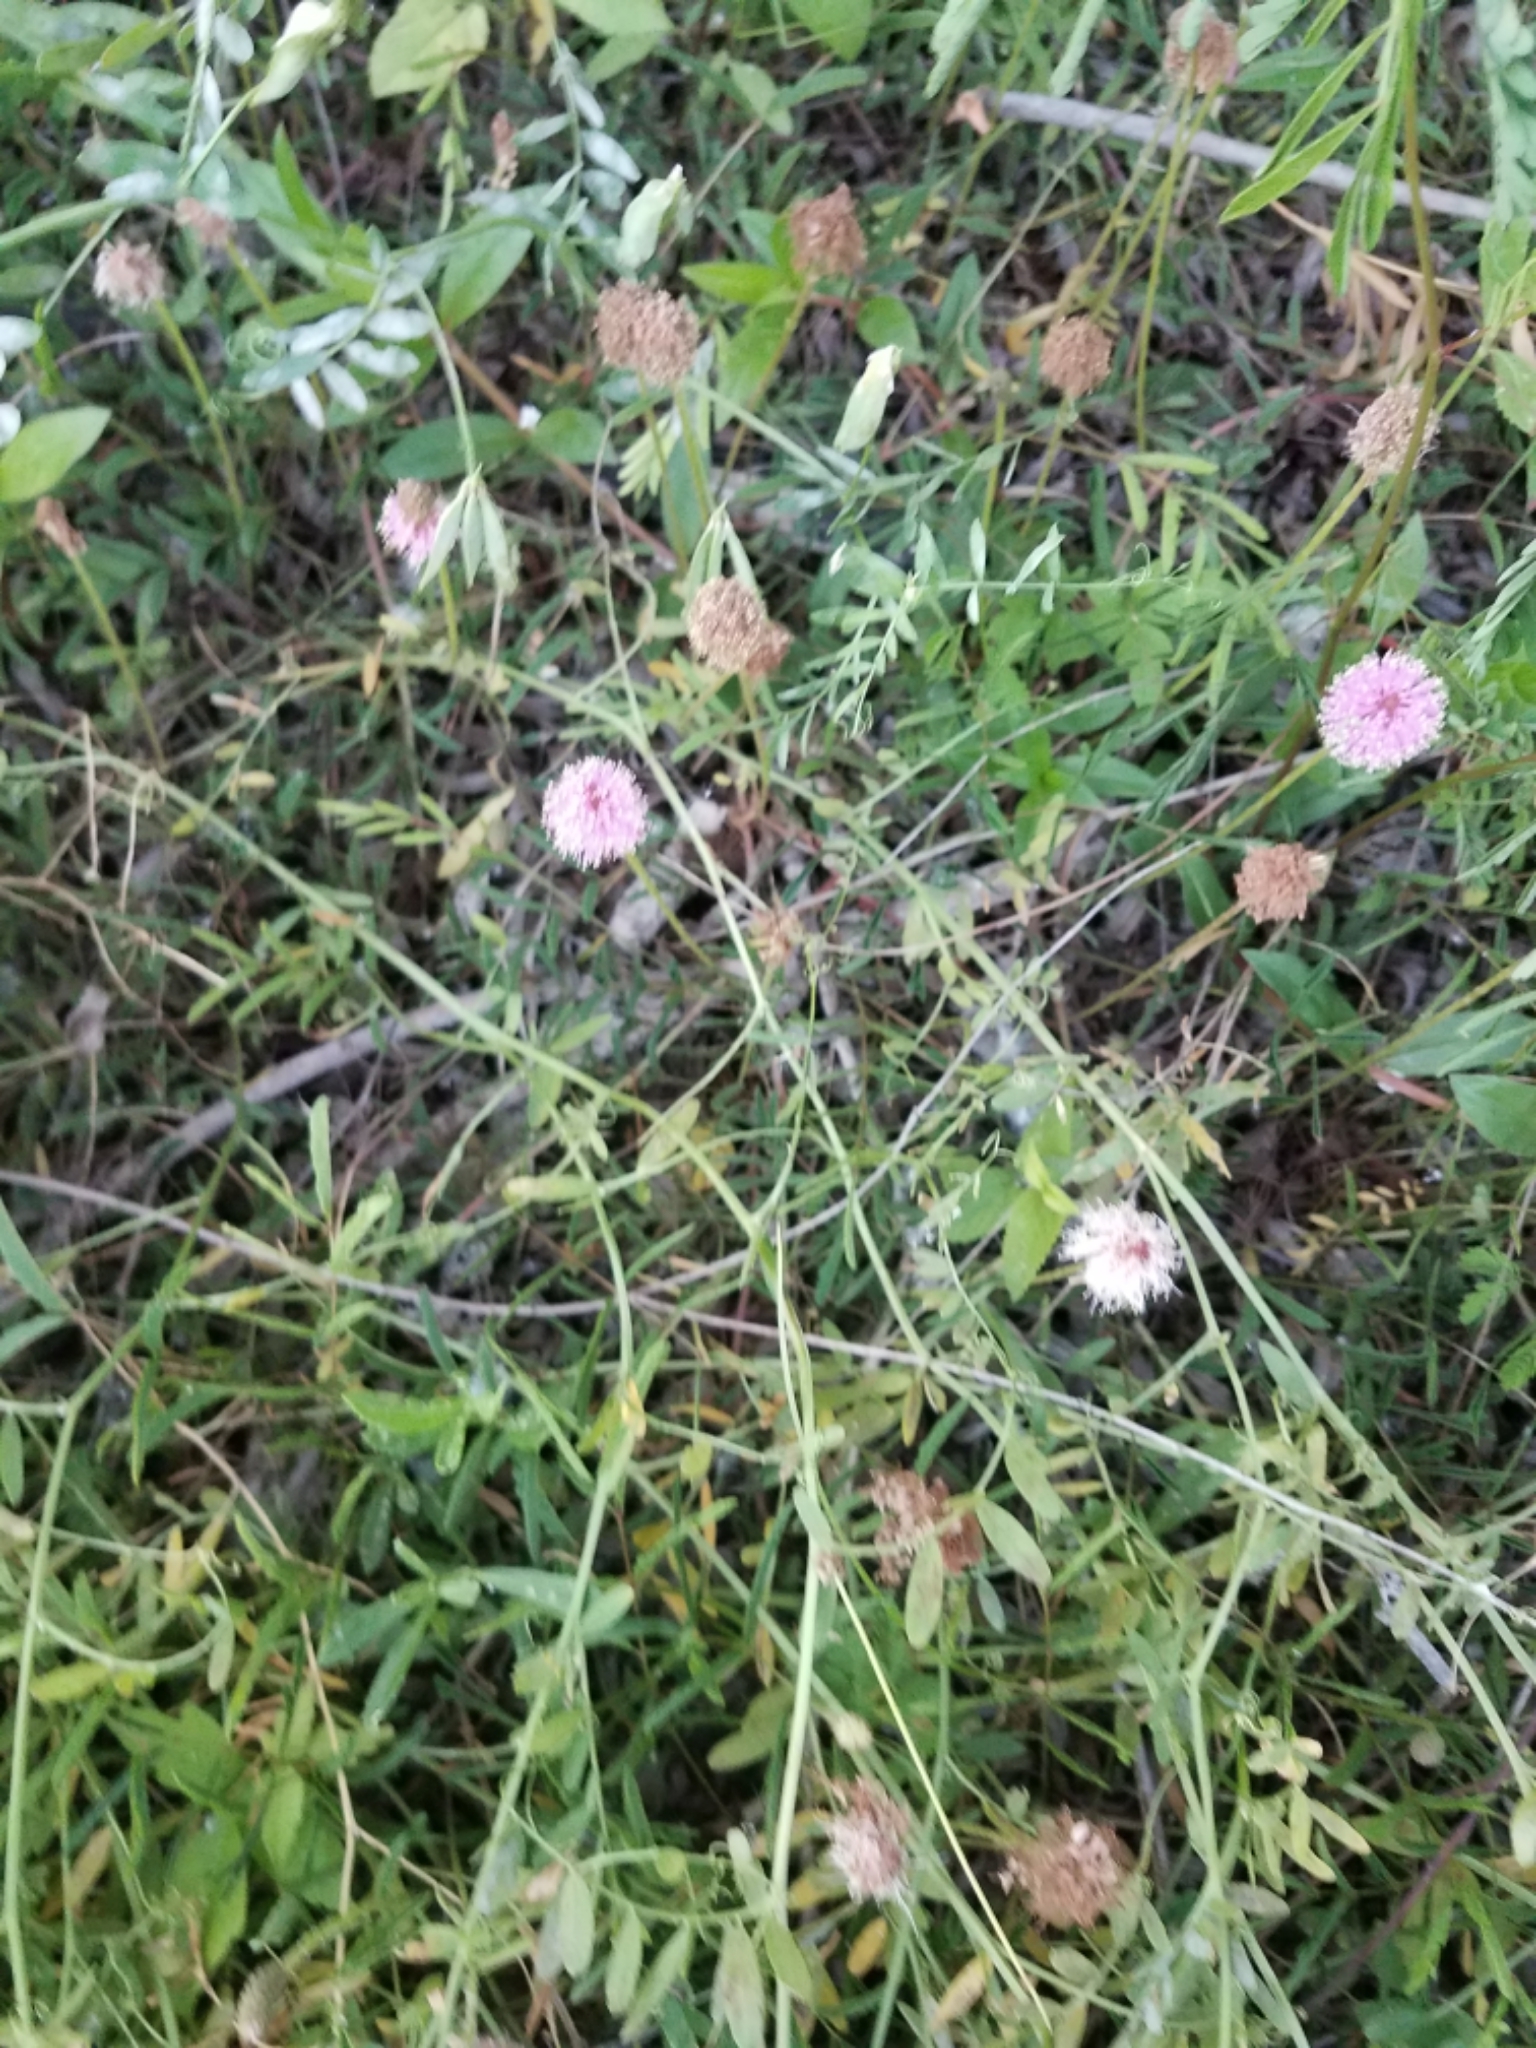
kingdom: Plantae
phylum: Tracheophyta
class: Magnoliopsida
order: Fabales
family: Fabaceae
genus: Mimosa
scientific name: Mimosa strigillosa
